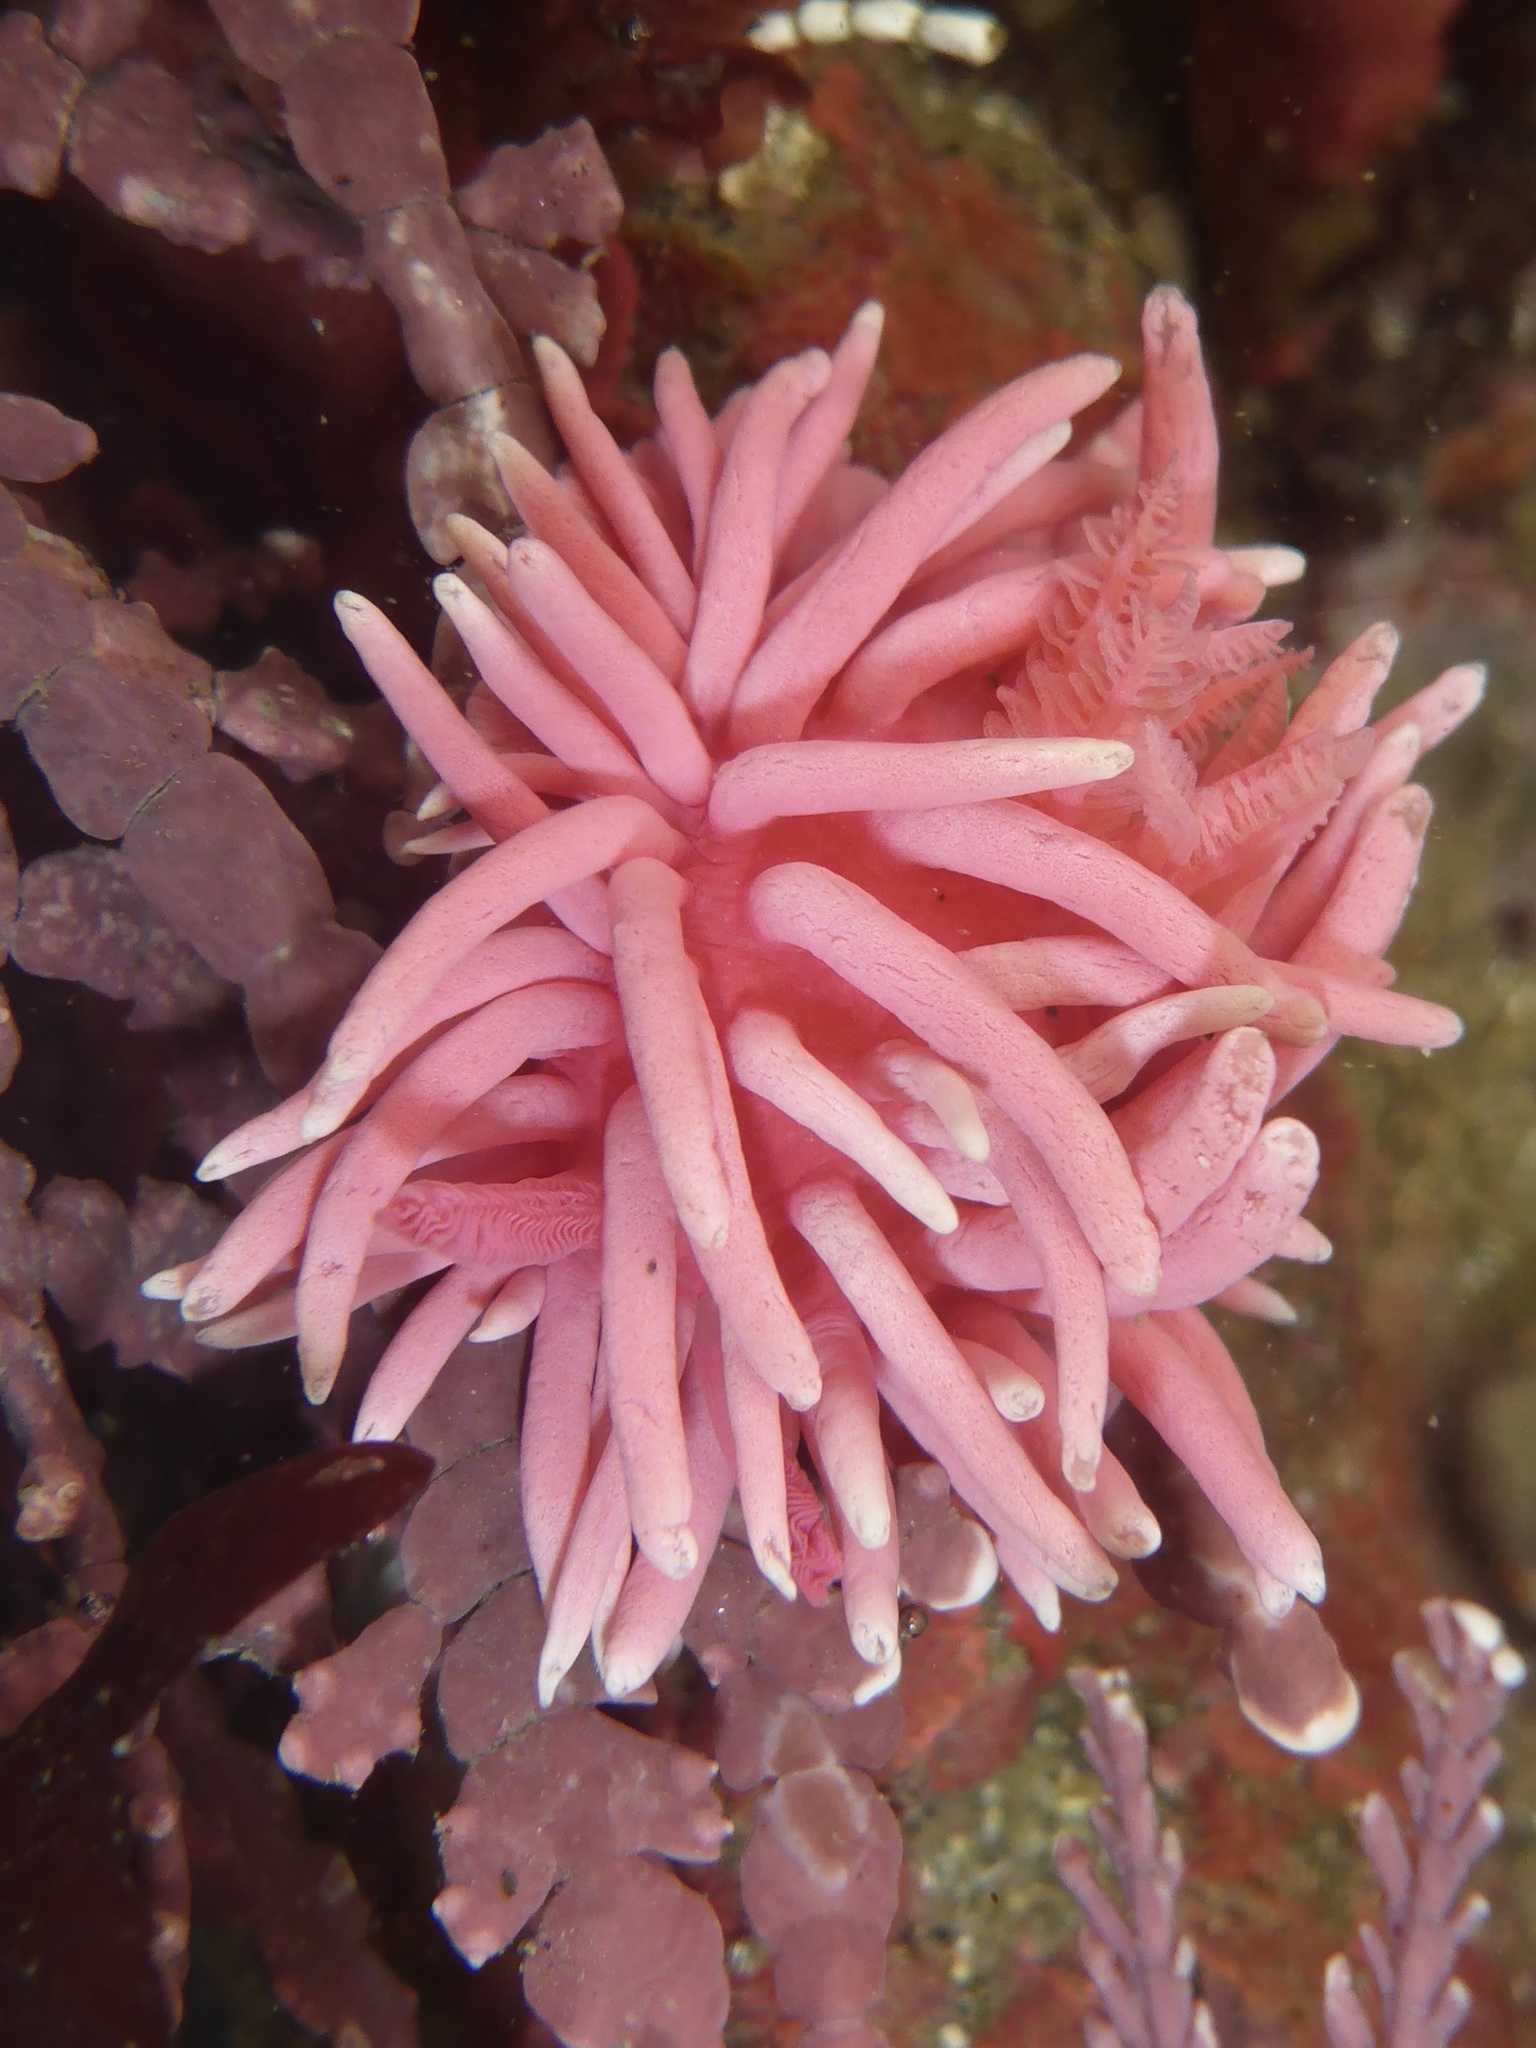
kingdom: Animalia
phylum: Mollusca
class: Gastropoda
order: Nudibranchia
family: Goniodorididae
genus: Okenia
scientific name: Okenia
